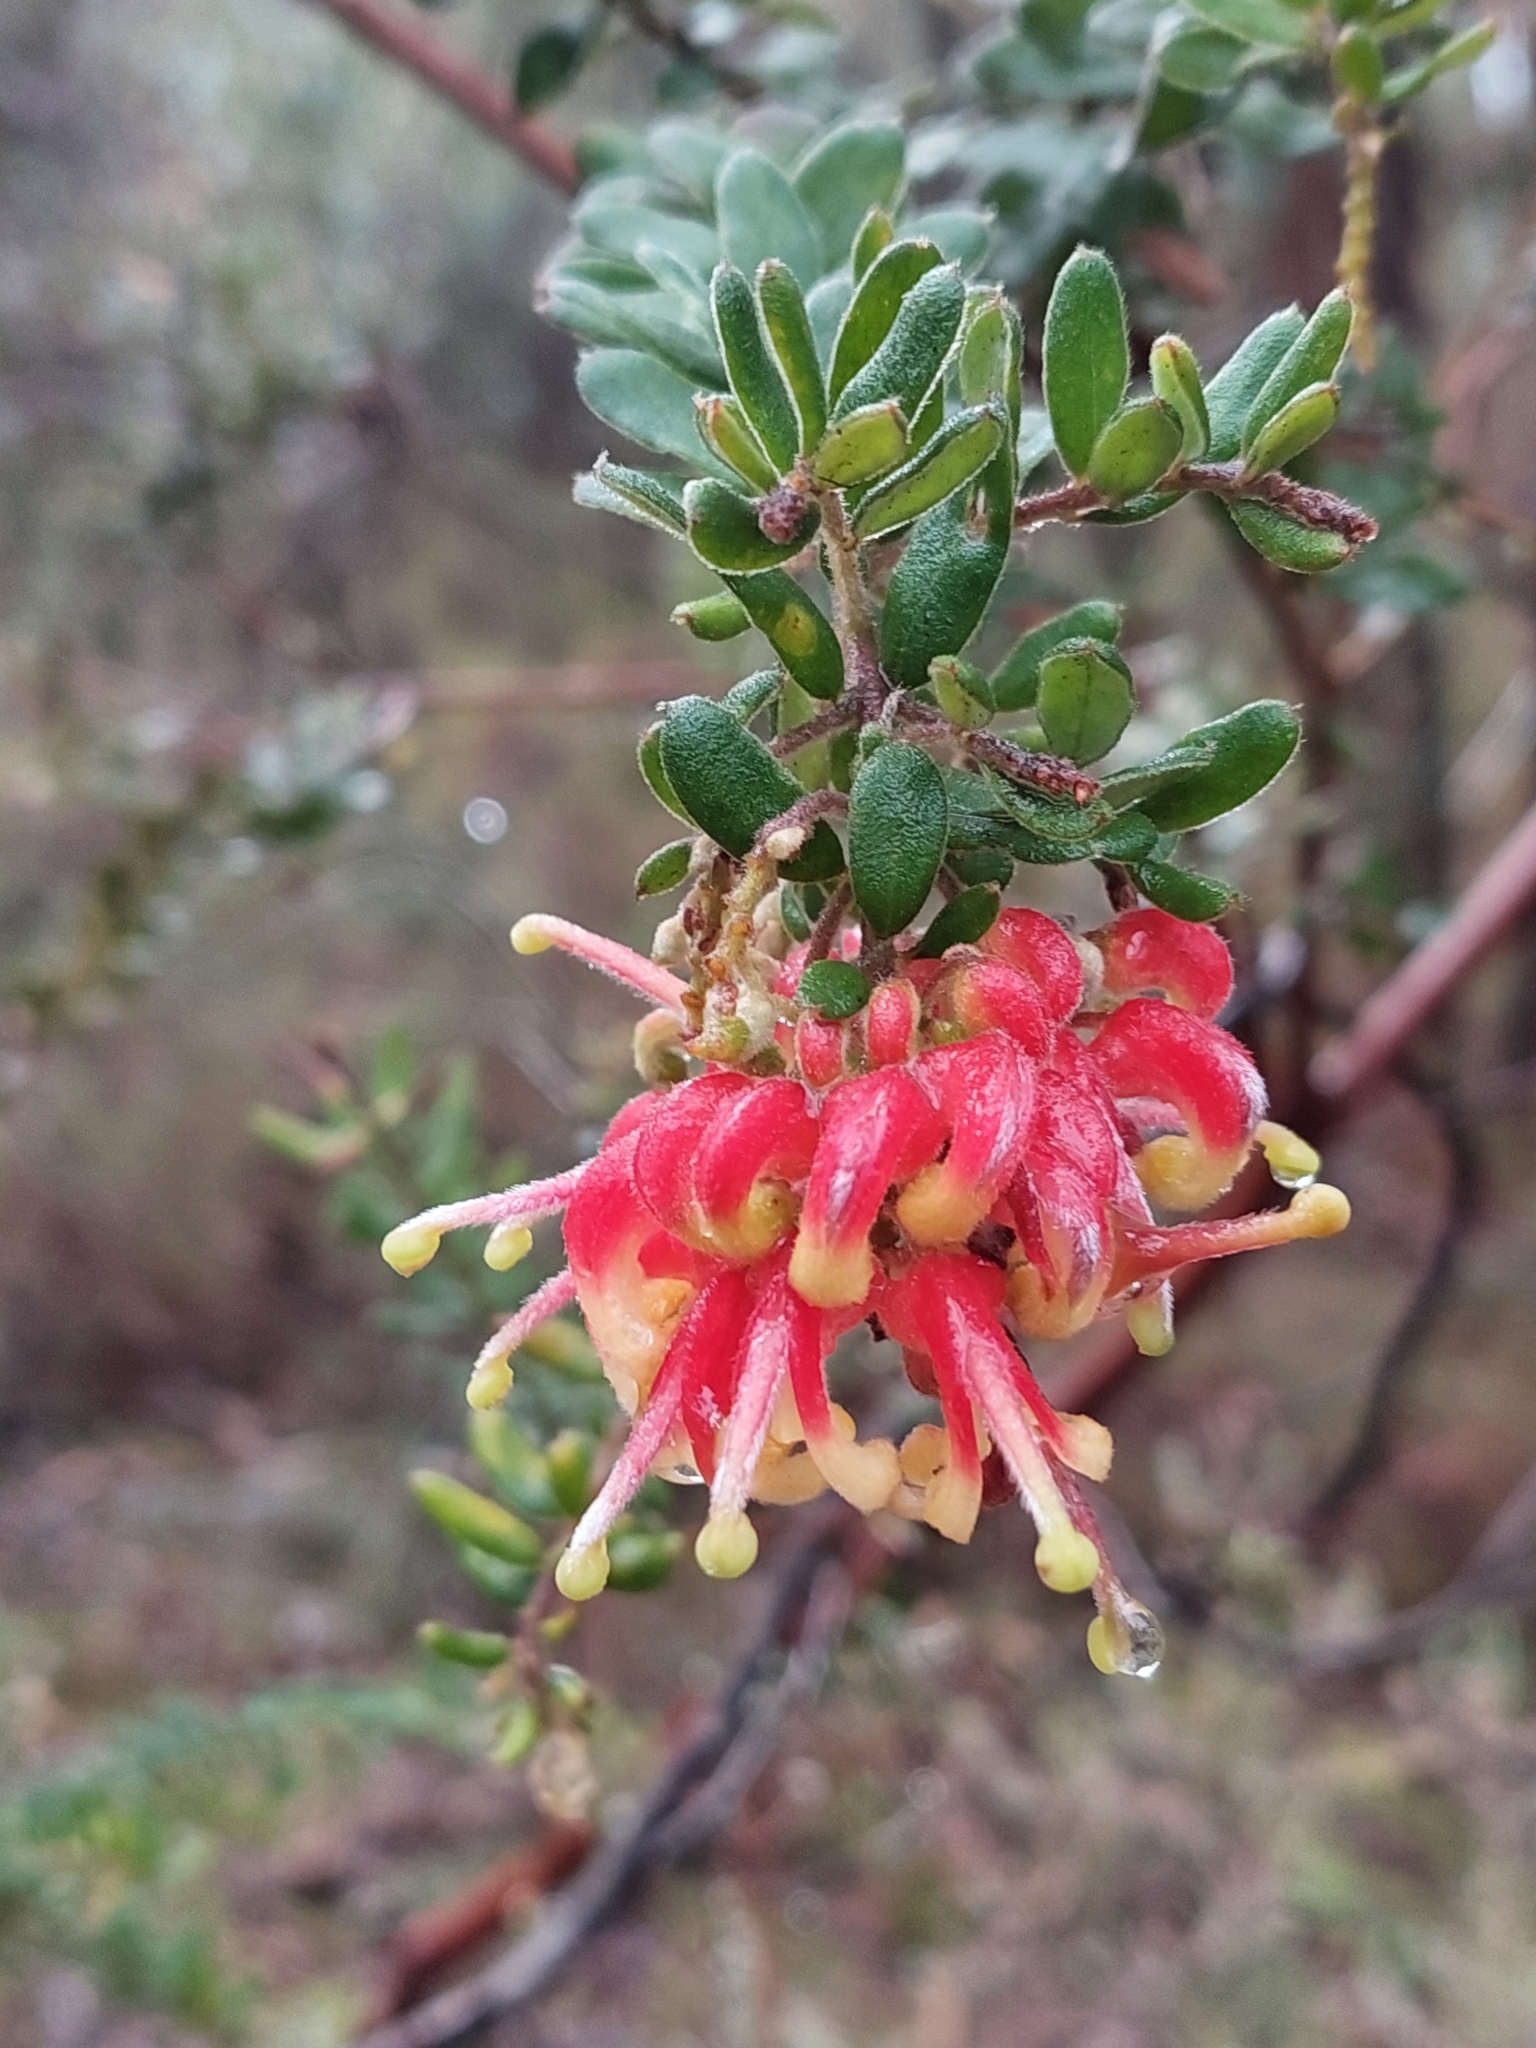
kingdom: Plantae
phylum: Tracheophyta
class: Magnoliopsida
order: Proteales
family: Proteaceae
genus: Grevillea
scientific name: Grevillea alpina
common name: Catclaws grevillea
